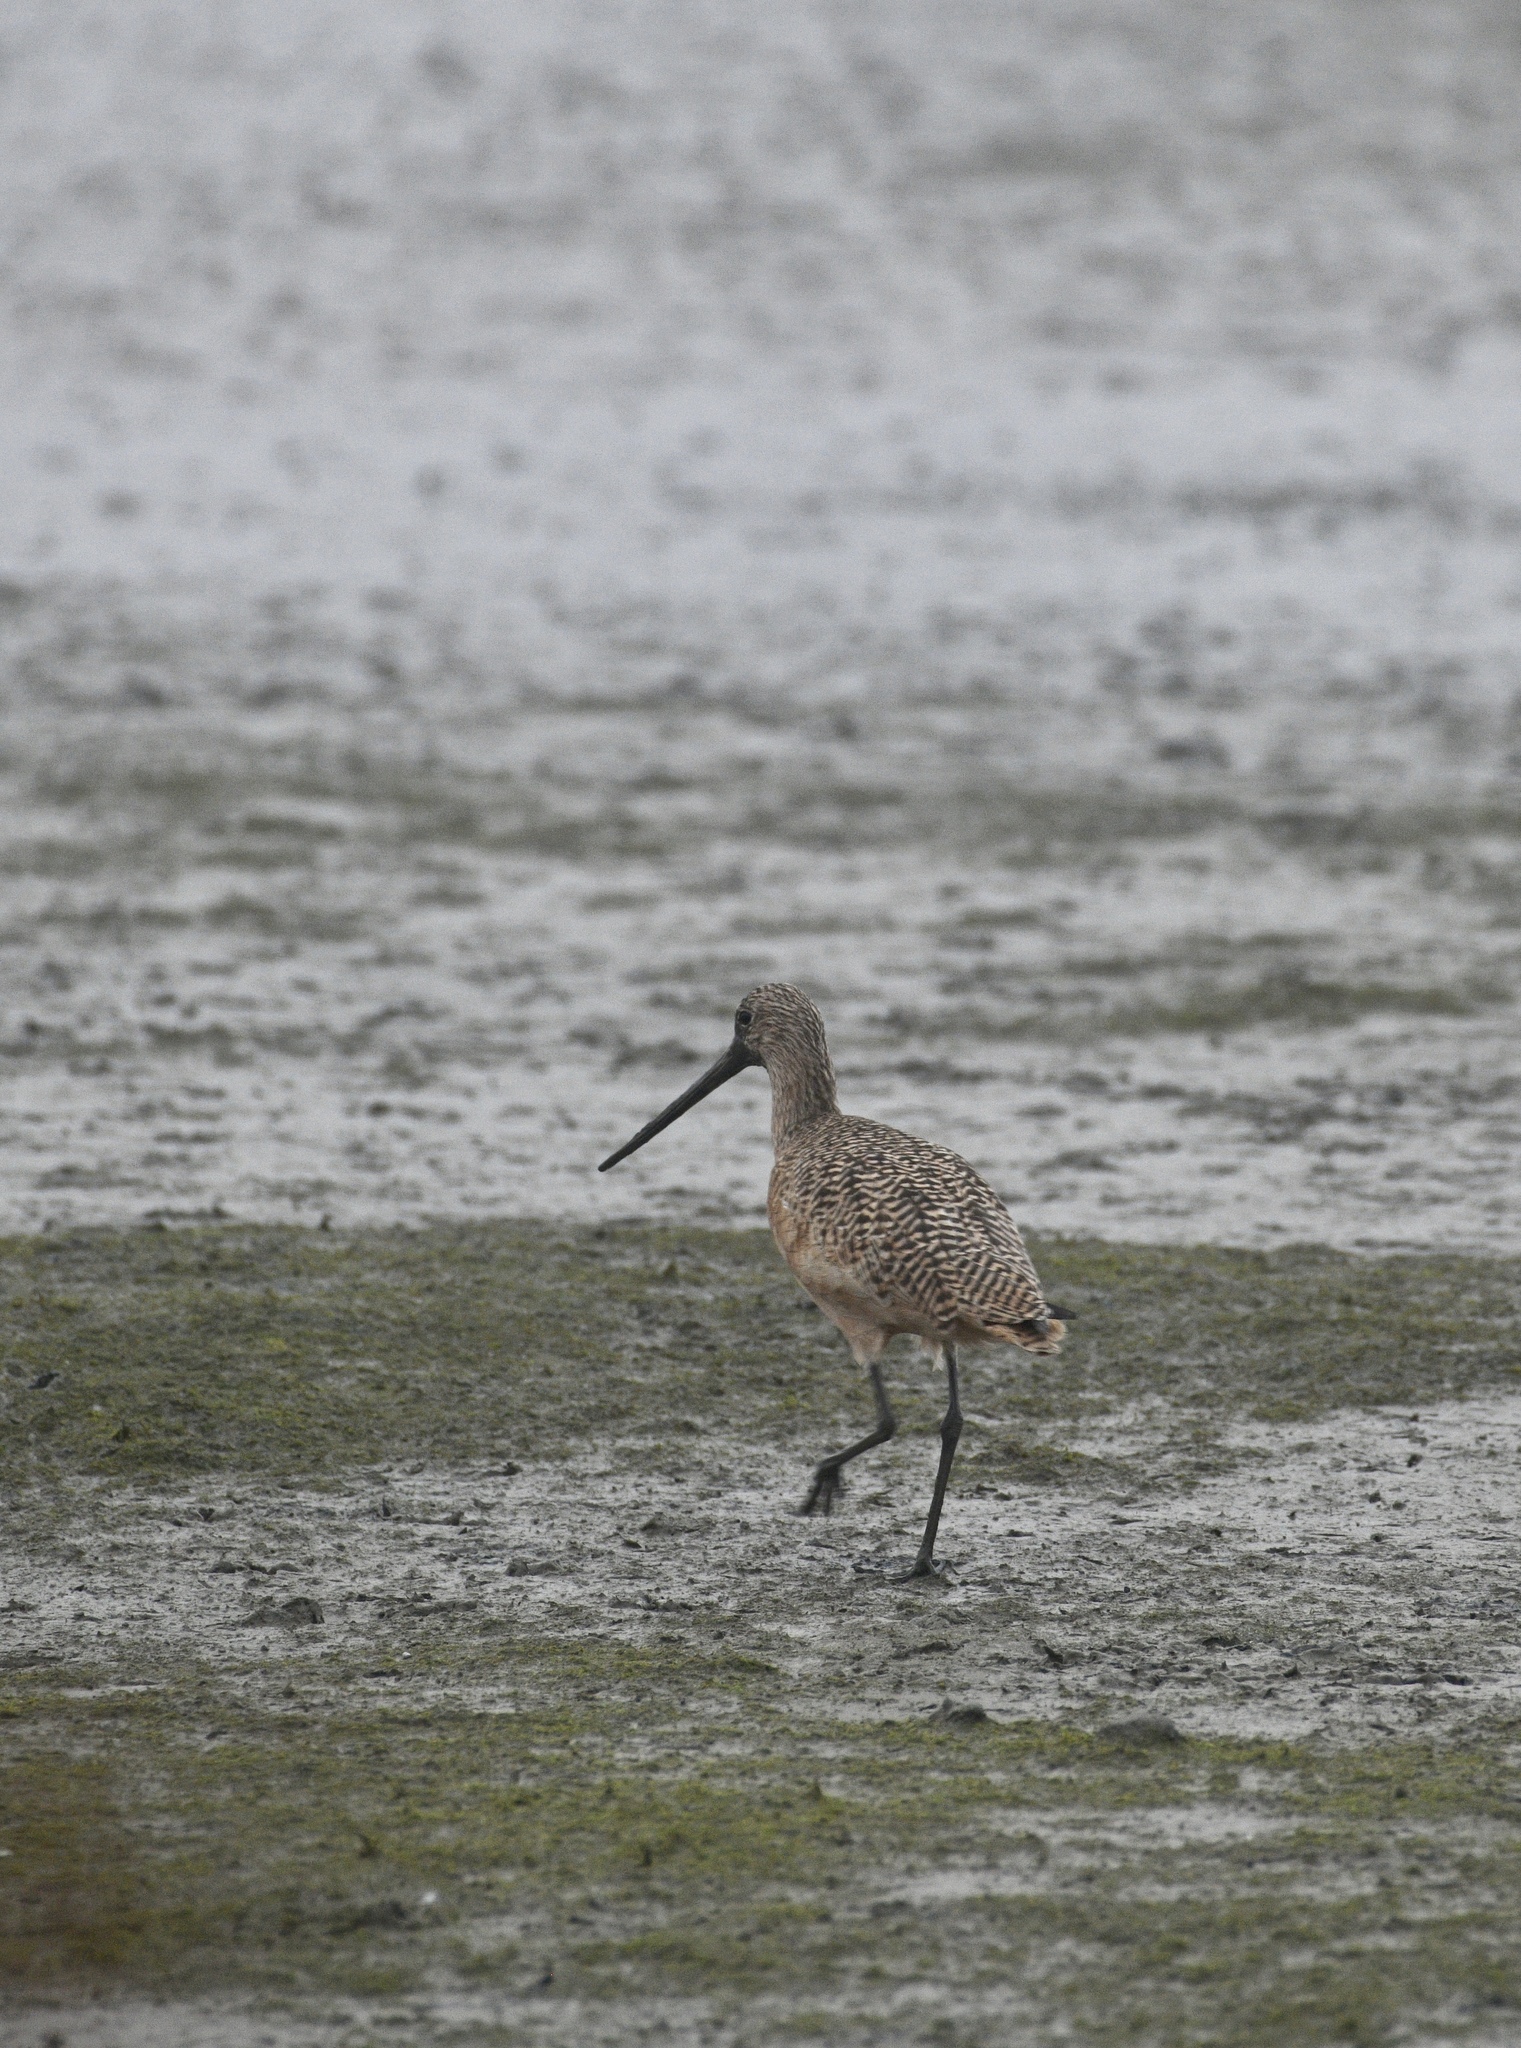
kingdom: Animalia
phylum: Chordata
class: Aves
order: Charadriiformes
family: Scolopacidae
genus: Limosa
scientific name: Limosa fedoa
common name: Marbled godwit
